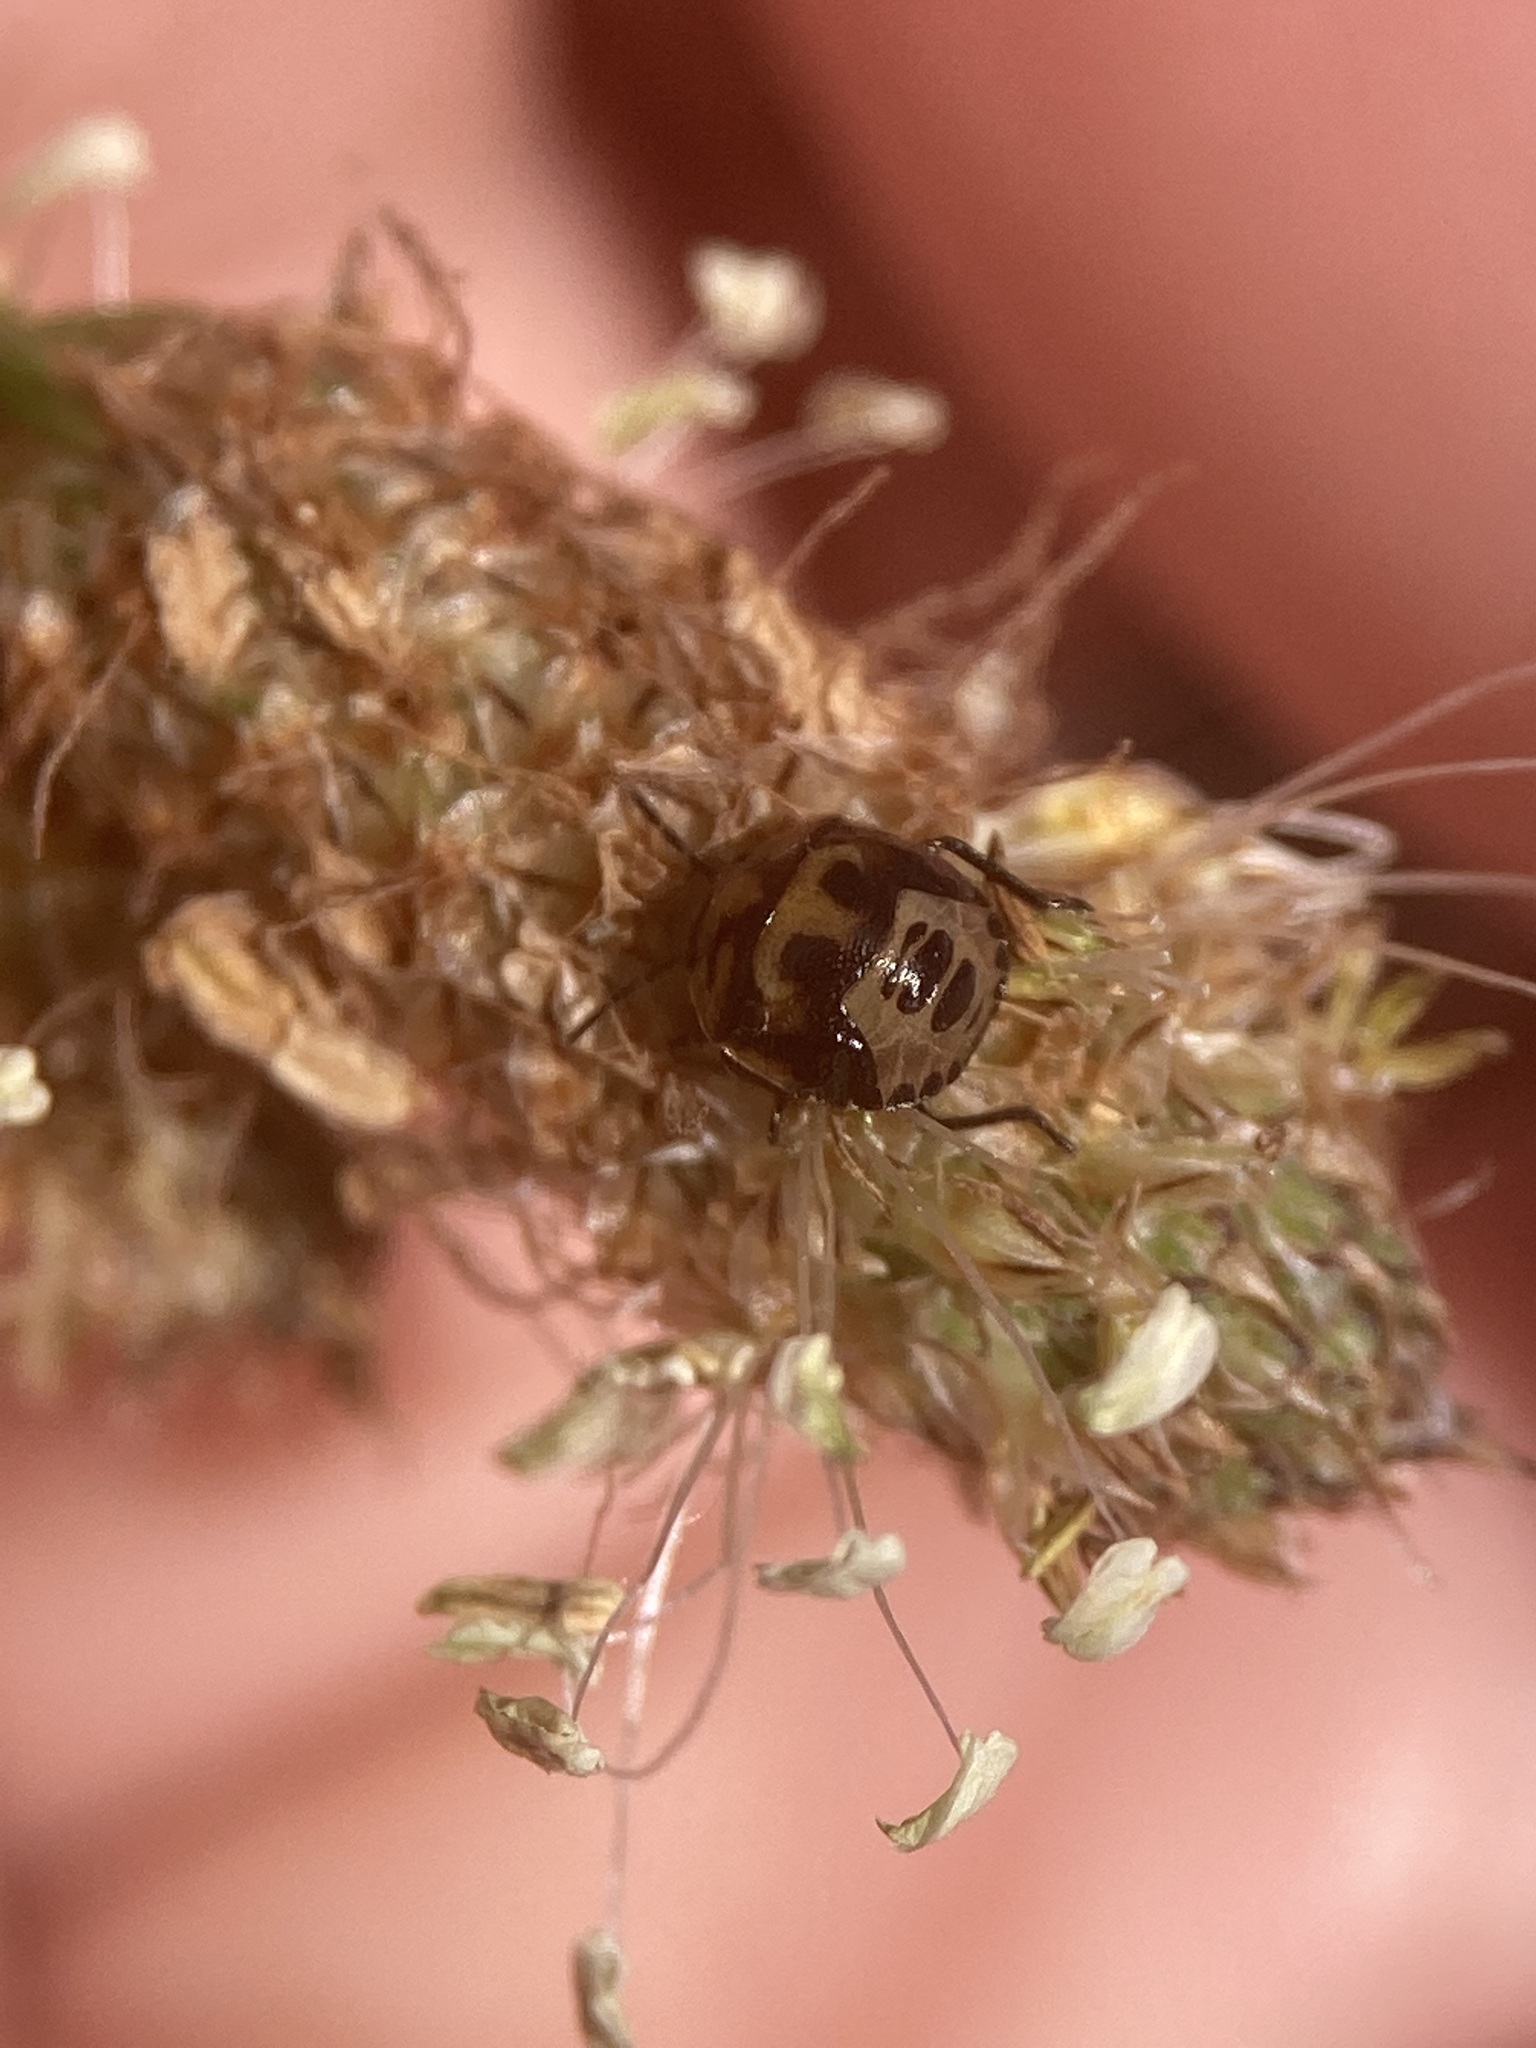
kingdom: Animalia
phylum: Arthropoda
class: Insecta
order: Hemiptera
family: Pentatomidae
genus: Cosmopepla
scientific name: Cosmopepla lintneriana
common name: Twice-stabbed stink bug
